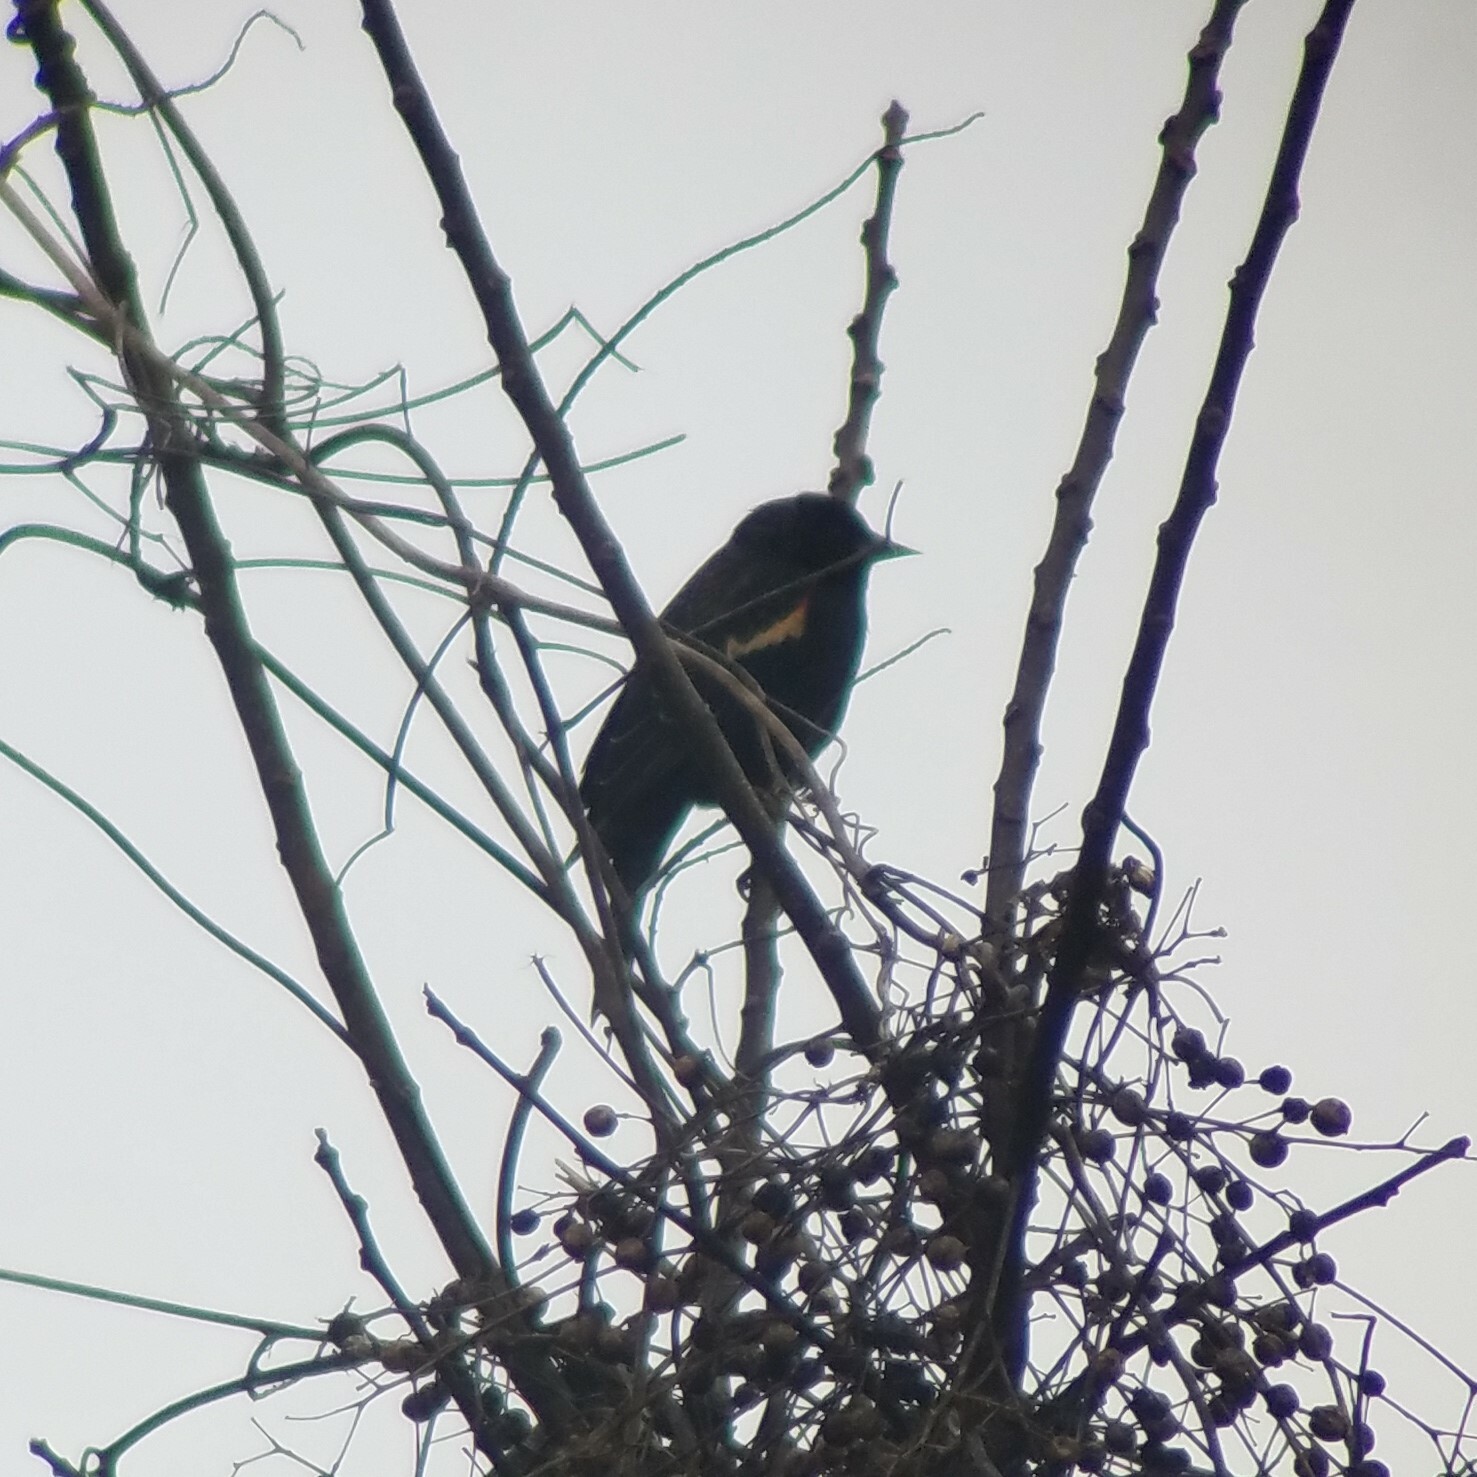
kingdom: Animalia
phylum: Chordata
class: Aves
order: Passeriformes
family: Icteridae
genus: Agelaius
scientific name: Agelaius phoeniceus
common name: Red-winged blackbird
